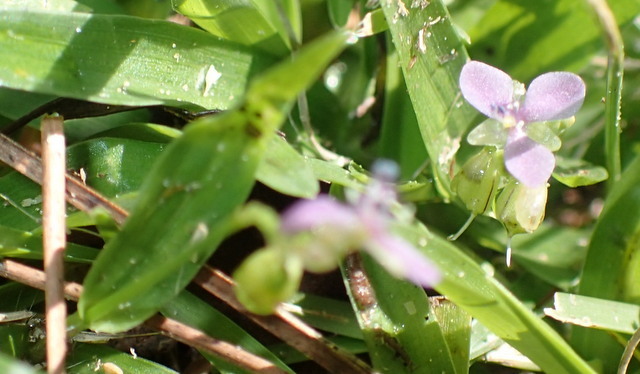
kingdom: Plantae
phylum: Tracheophyta
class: Liliopsida
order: Commelinales
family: Commelinaceae
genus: Murdannia
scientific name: Murdannia nudiflora
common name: Nakedstem dewflower
